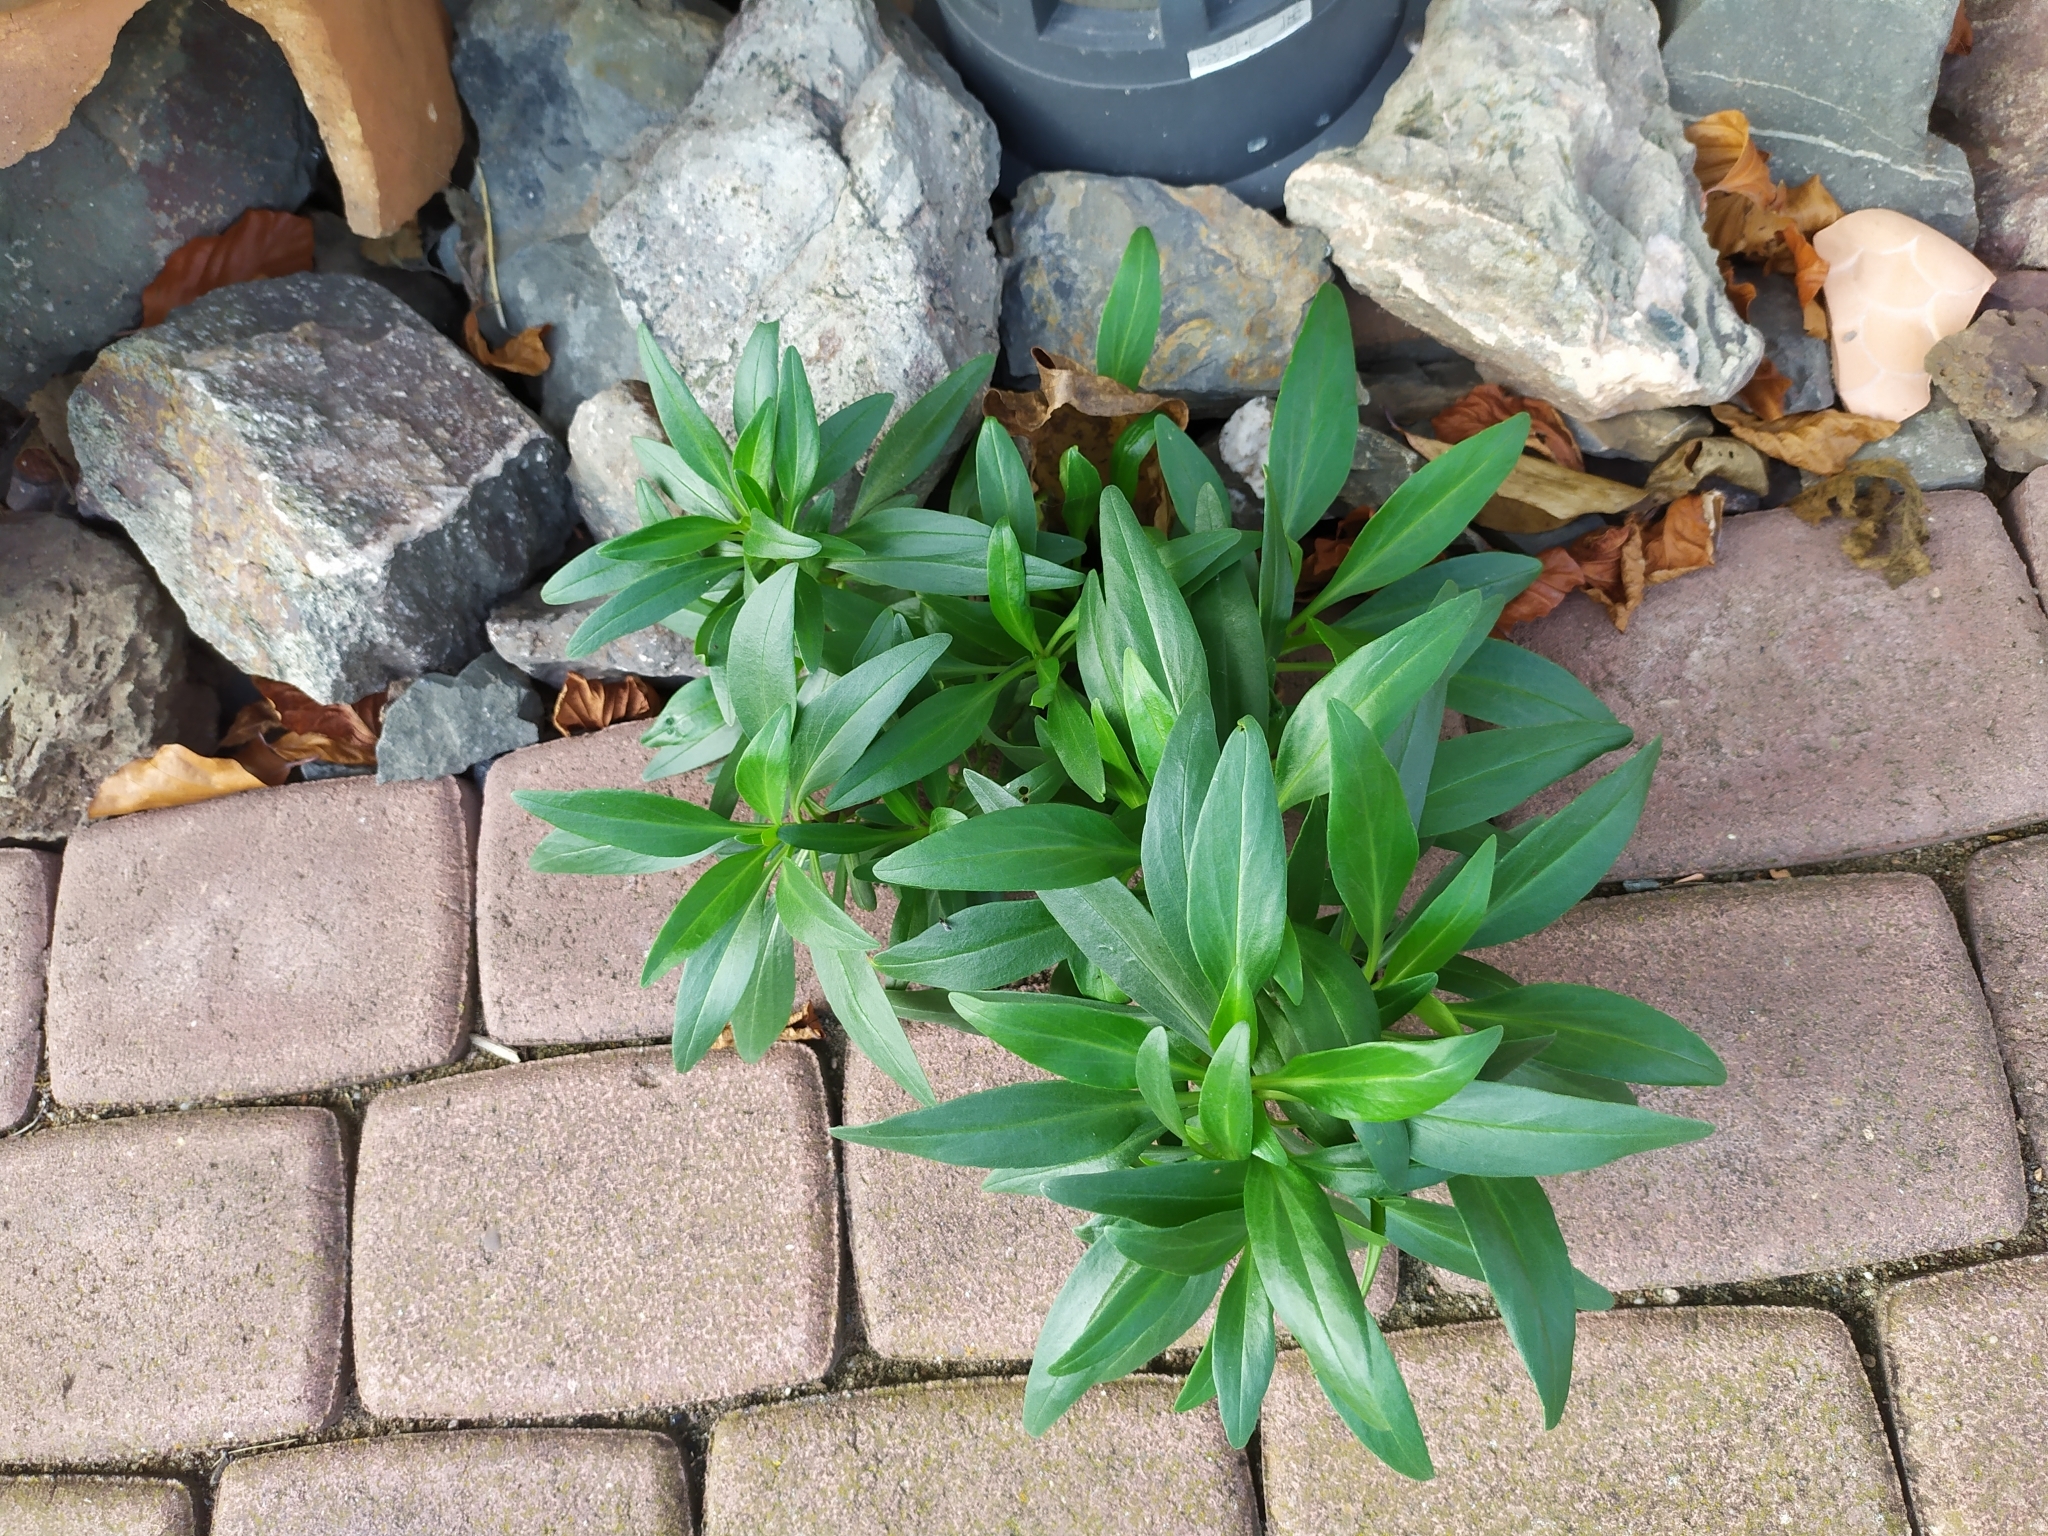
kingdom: Plantae
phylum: Tracheophyta
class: Magnoliopsida
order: Dipsacales
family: Caprifoliaceae
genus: Centranthus
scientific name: Centranthus ruber
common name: Red valerian
